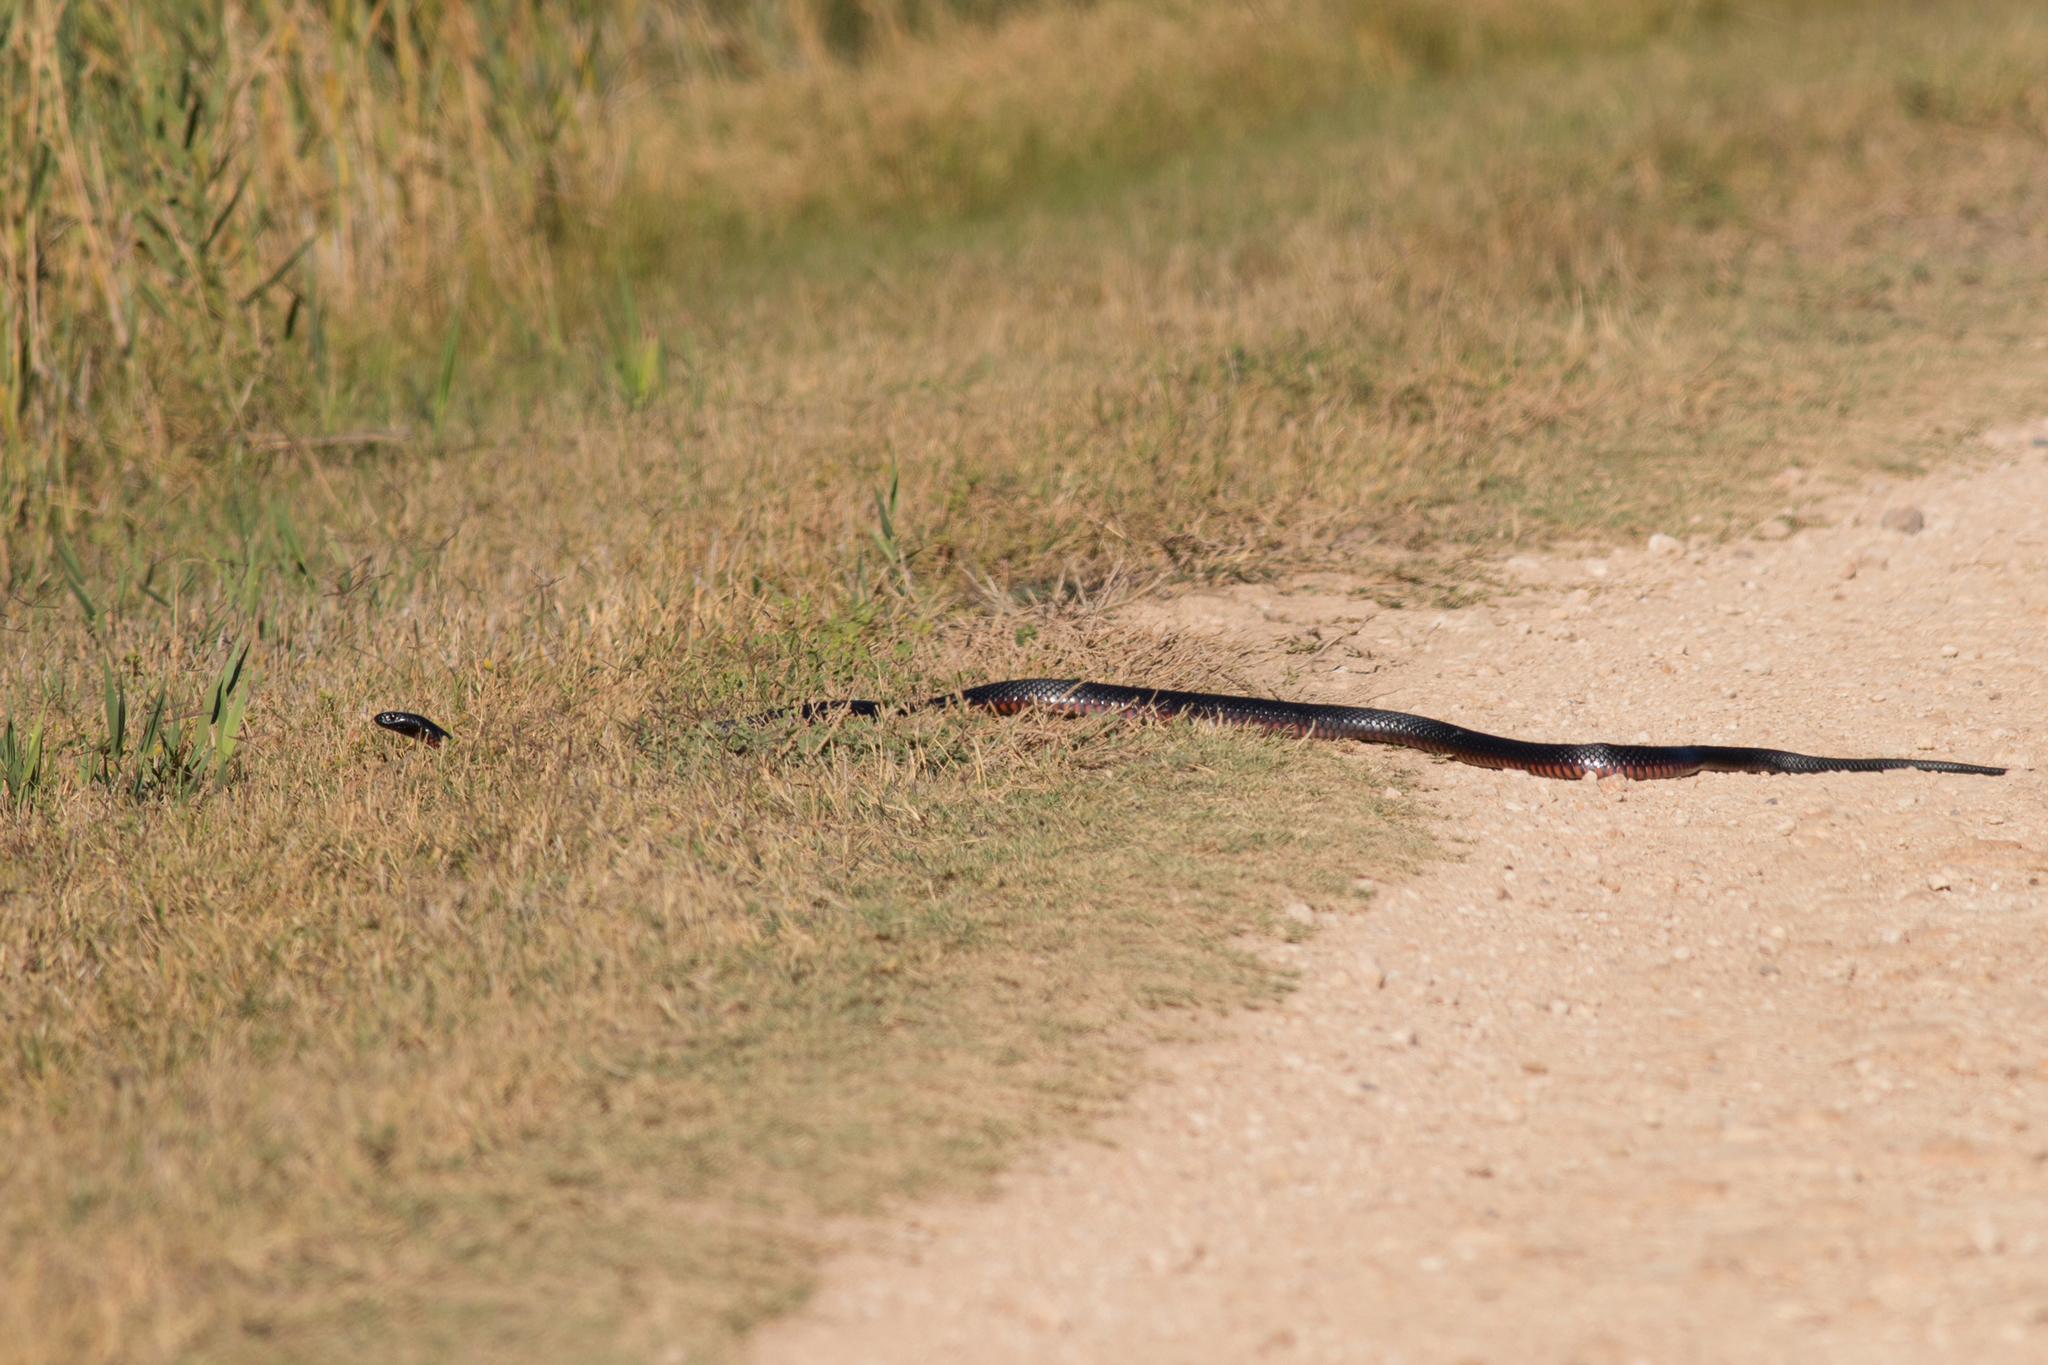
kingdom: Animalia
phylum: Chordata
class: Squamata
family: Elapidae
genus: Pseudechis
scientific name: Pseudechis porphyriacus
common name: Australian black snake
